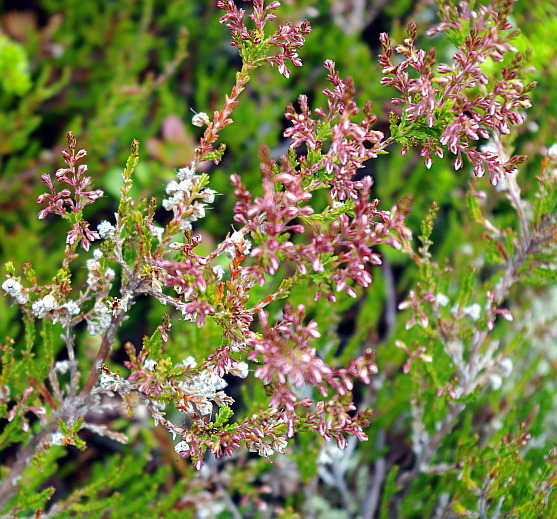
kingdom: Plantae
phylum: Tracheophyta
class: Magnoliopsida
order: Ericales
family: Ericaceae
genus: Calluna
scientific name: Calluna vulgaris
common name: Heather
